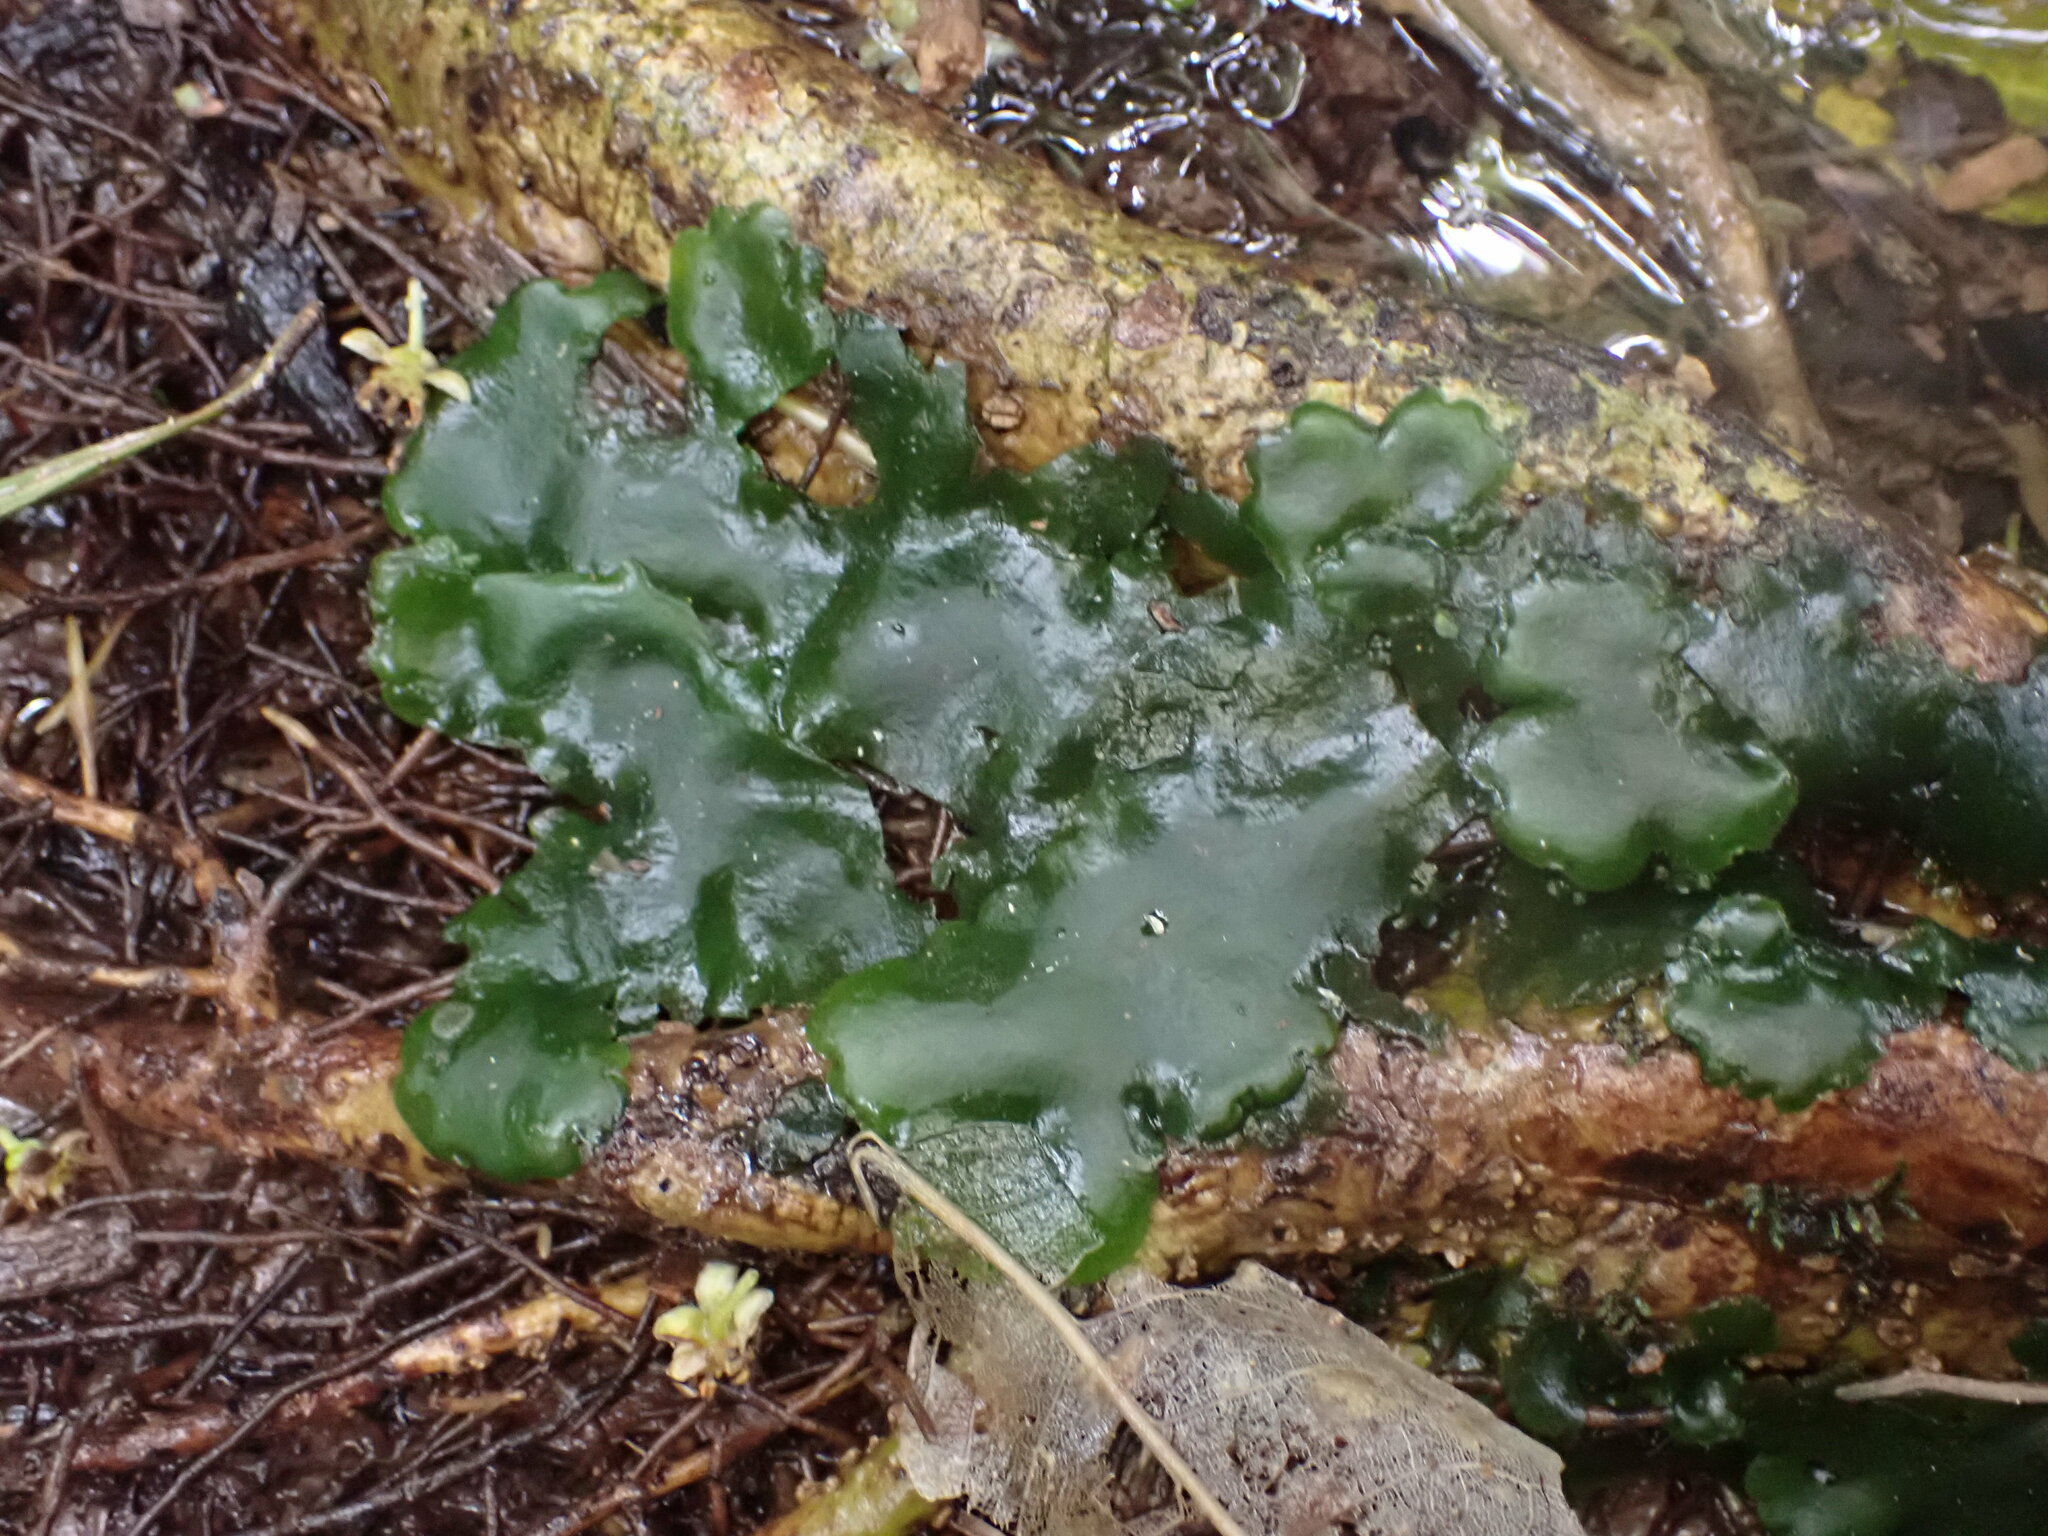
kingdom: Plantae
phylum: Marchantiophyta
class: Marchantiopsida
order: Marchantiales
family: Monocleaceae
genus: Monoclea
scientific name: Monoclea forsteri
